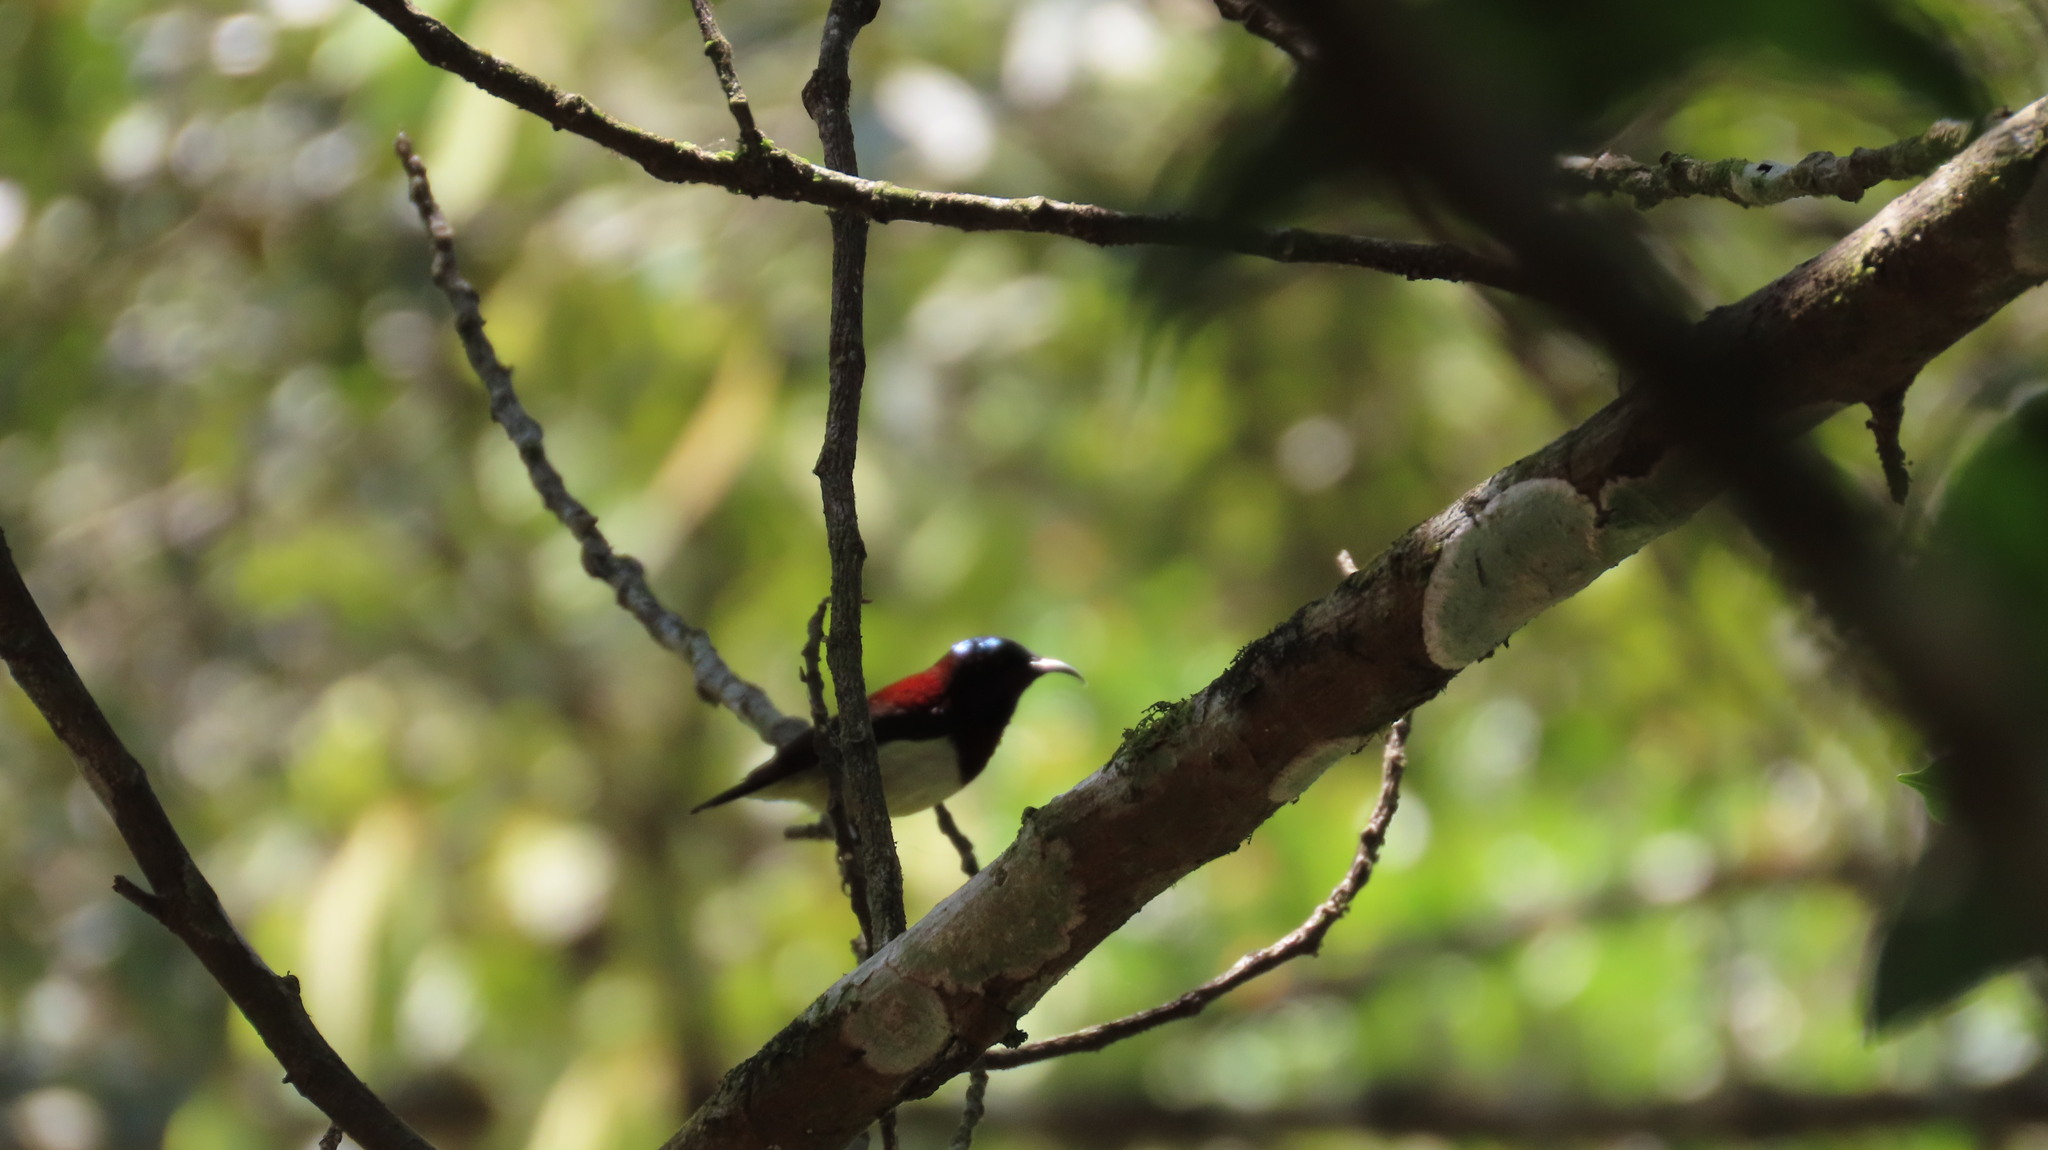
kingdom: Animalia
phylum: Chordata
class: Aves
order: Passeriformes
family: Nectariniidae
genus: Leptocoma
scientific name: Leptocoma minima
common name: Crimson-backed sunbird
